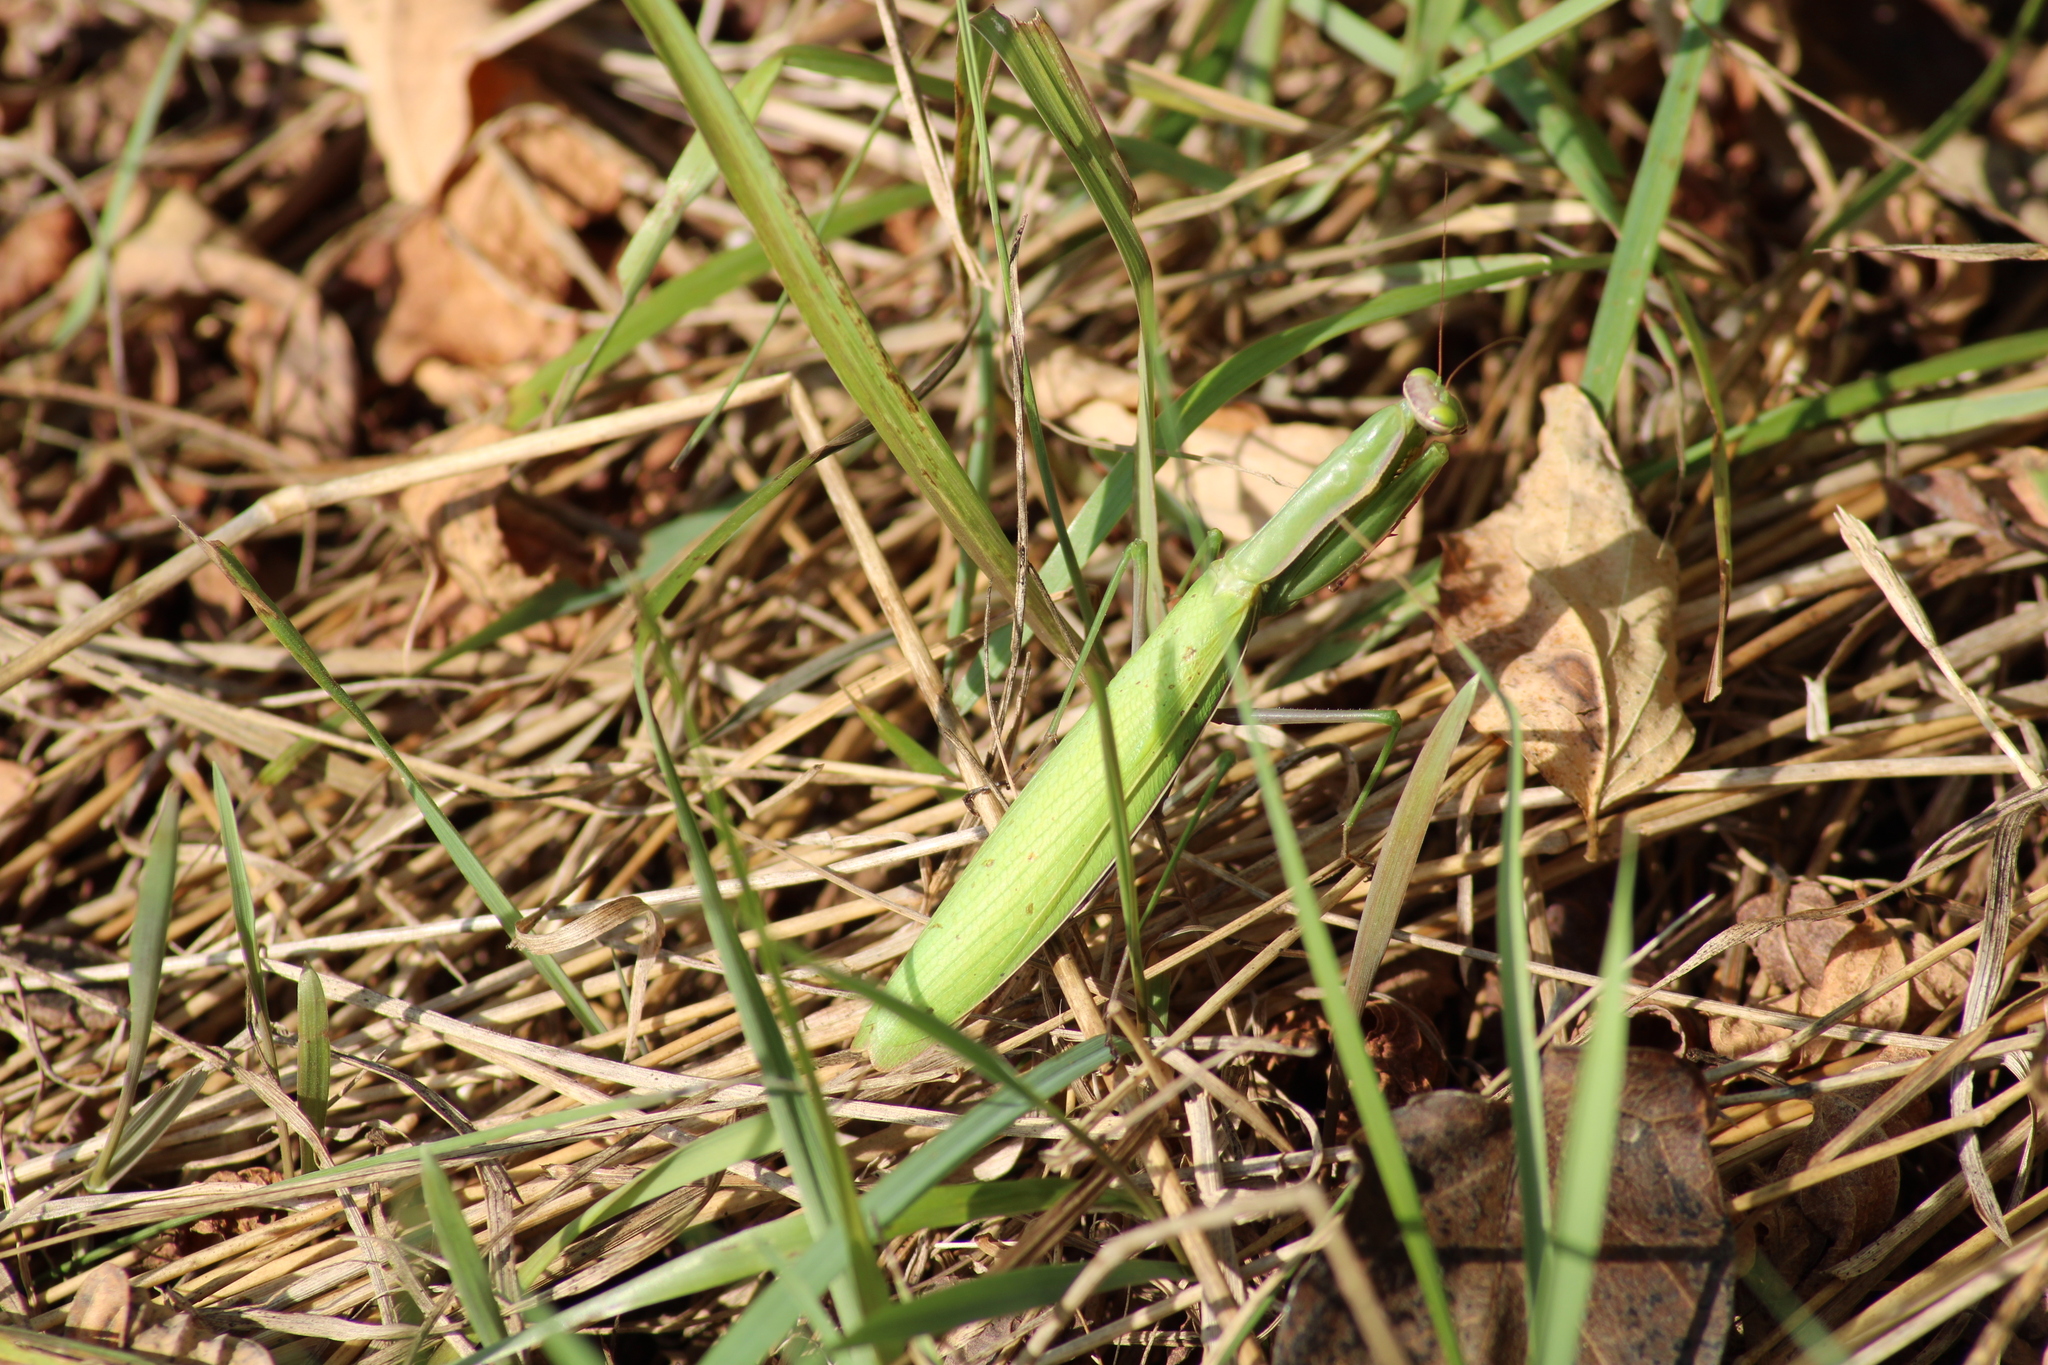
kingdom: Animalia
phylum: Arthropoda
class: Insecta
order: Mantodea
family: Mantidae
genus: Mantis
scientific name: Mantis religiosa
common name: Praying mantis
